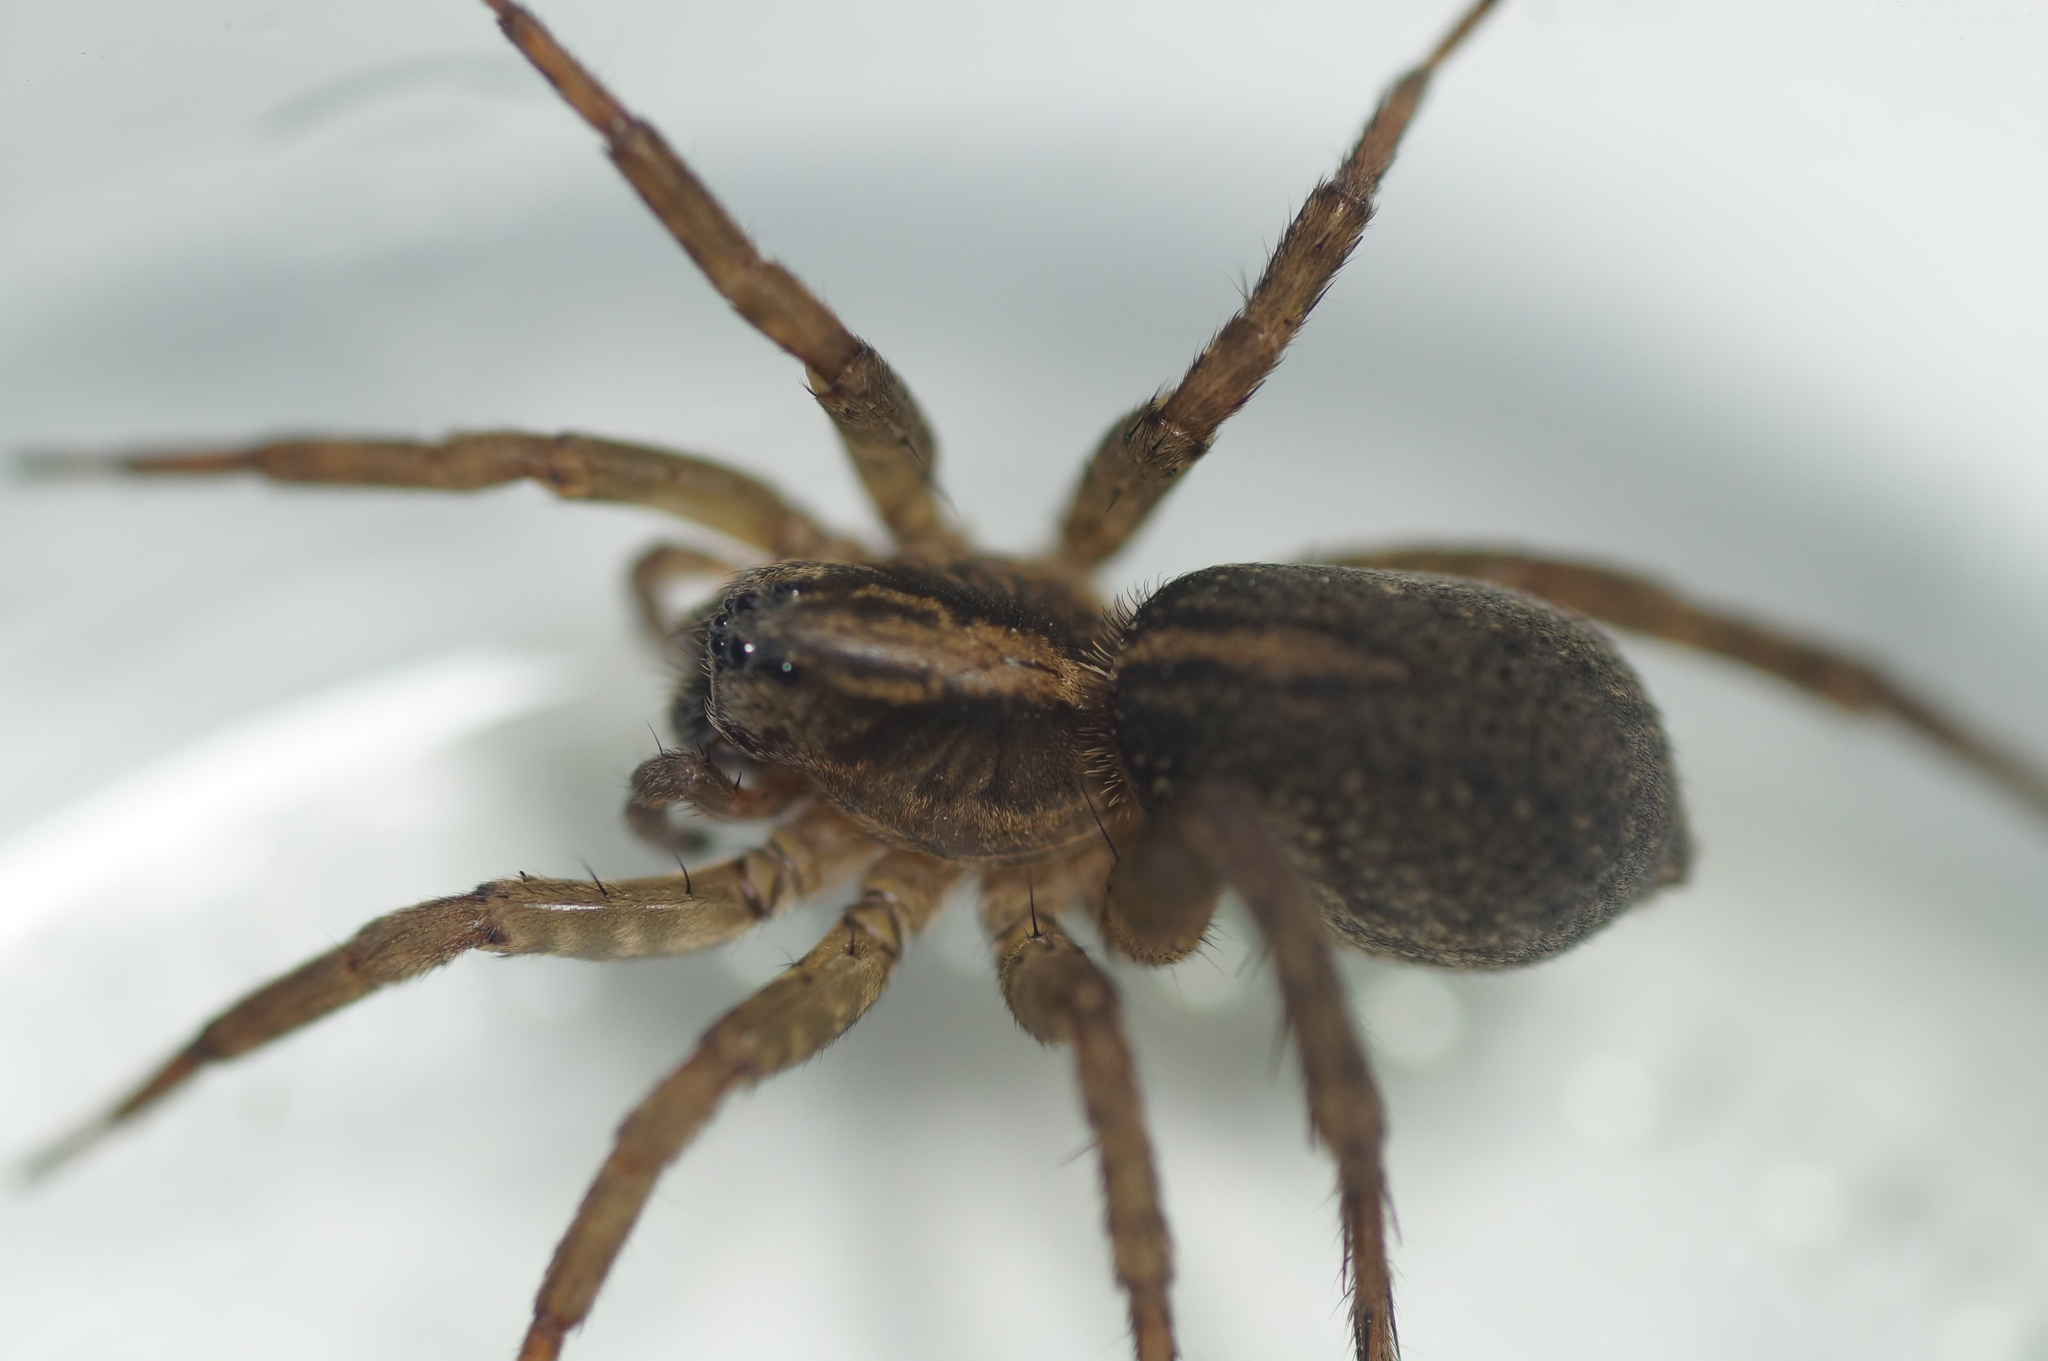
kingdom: Animalia
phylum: Arthropoda
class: Arachnida
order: Araneae
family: Lycosidae
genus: Trochosa
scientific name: Trochosa
